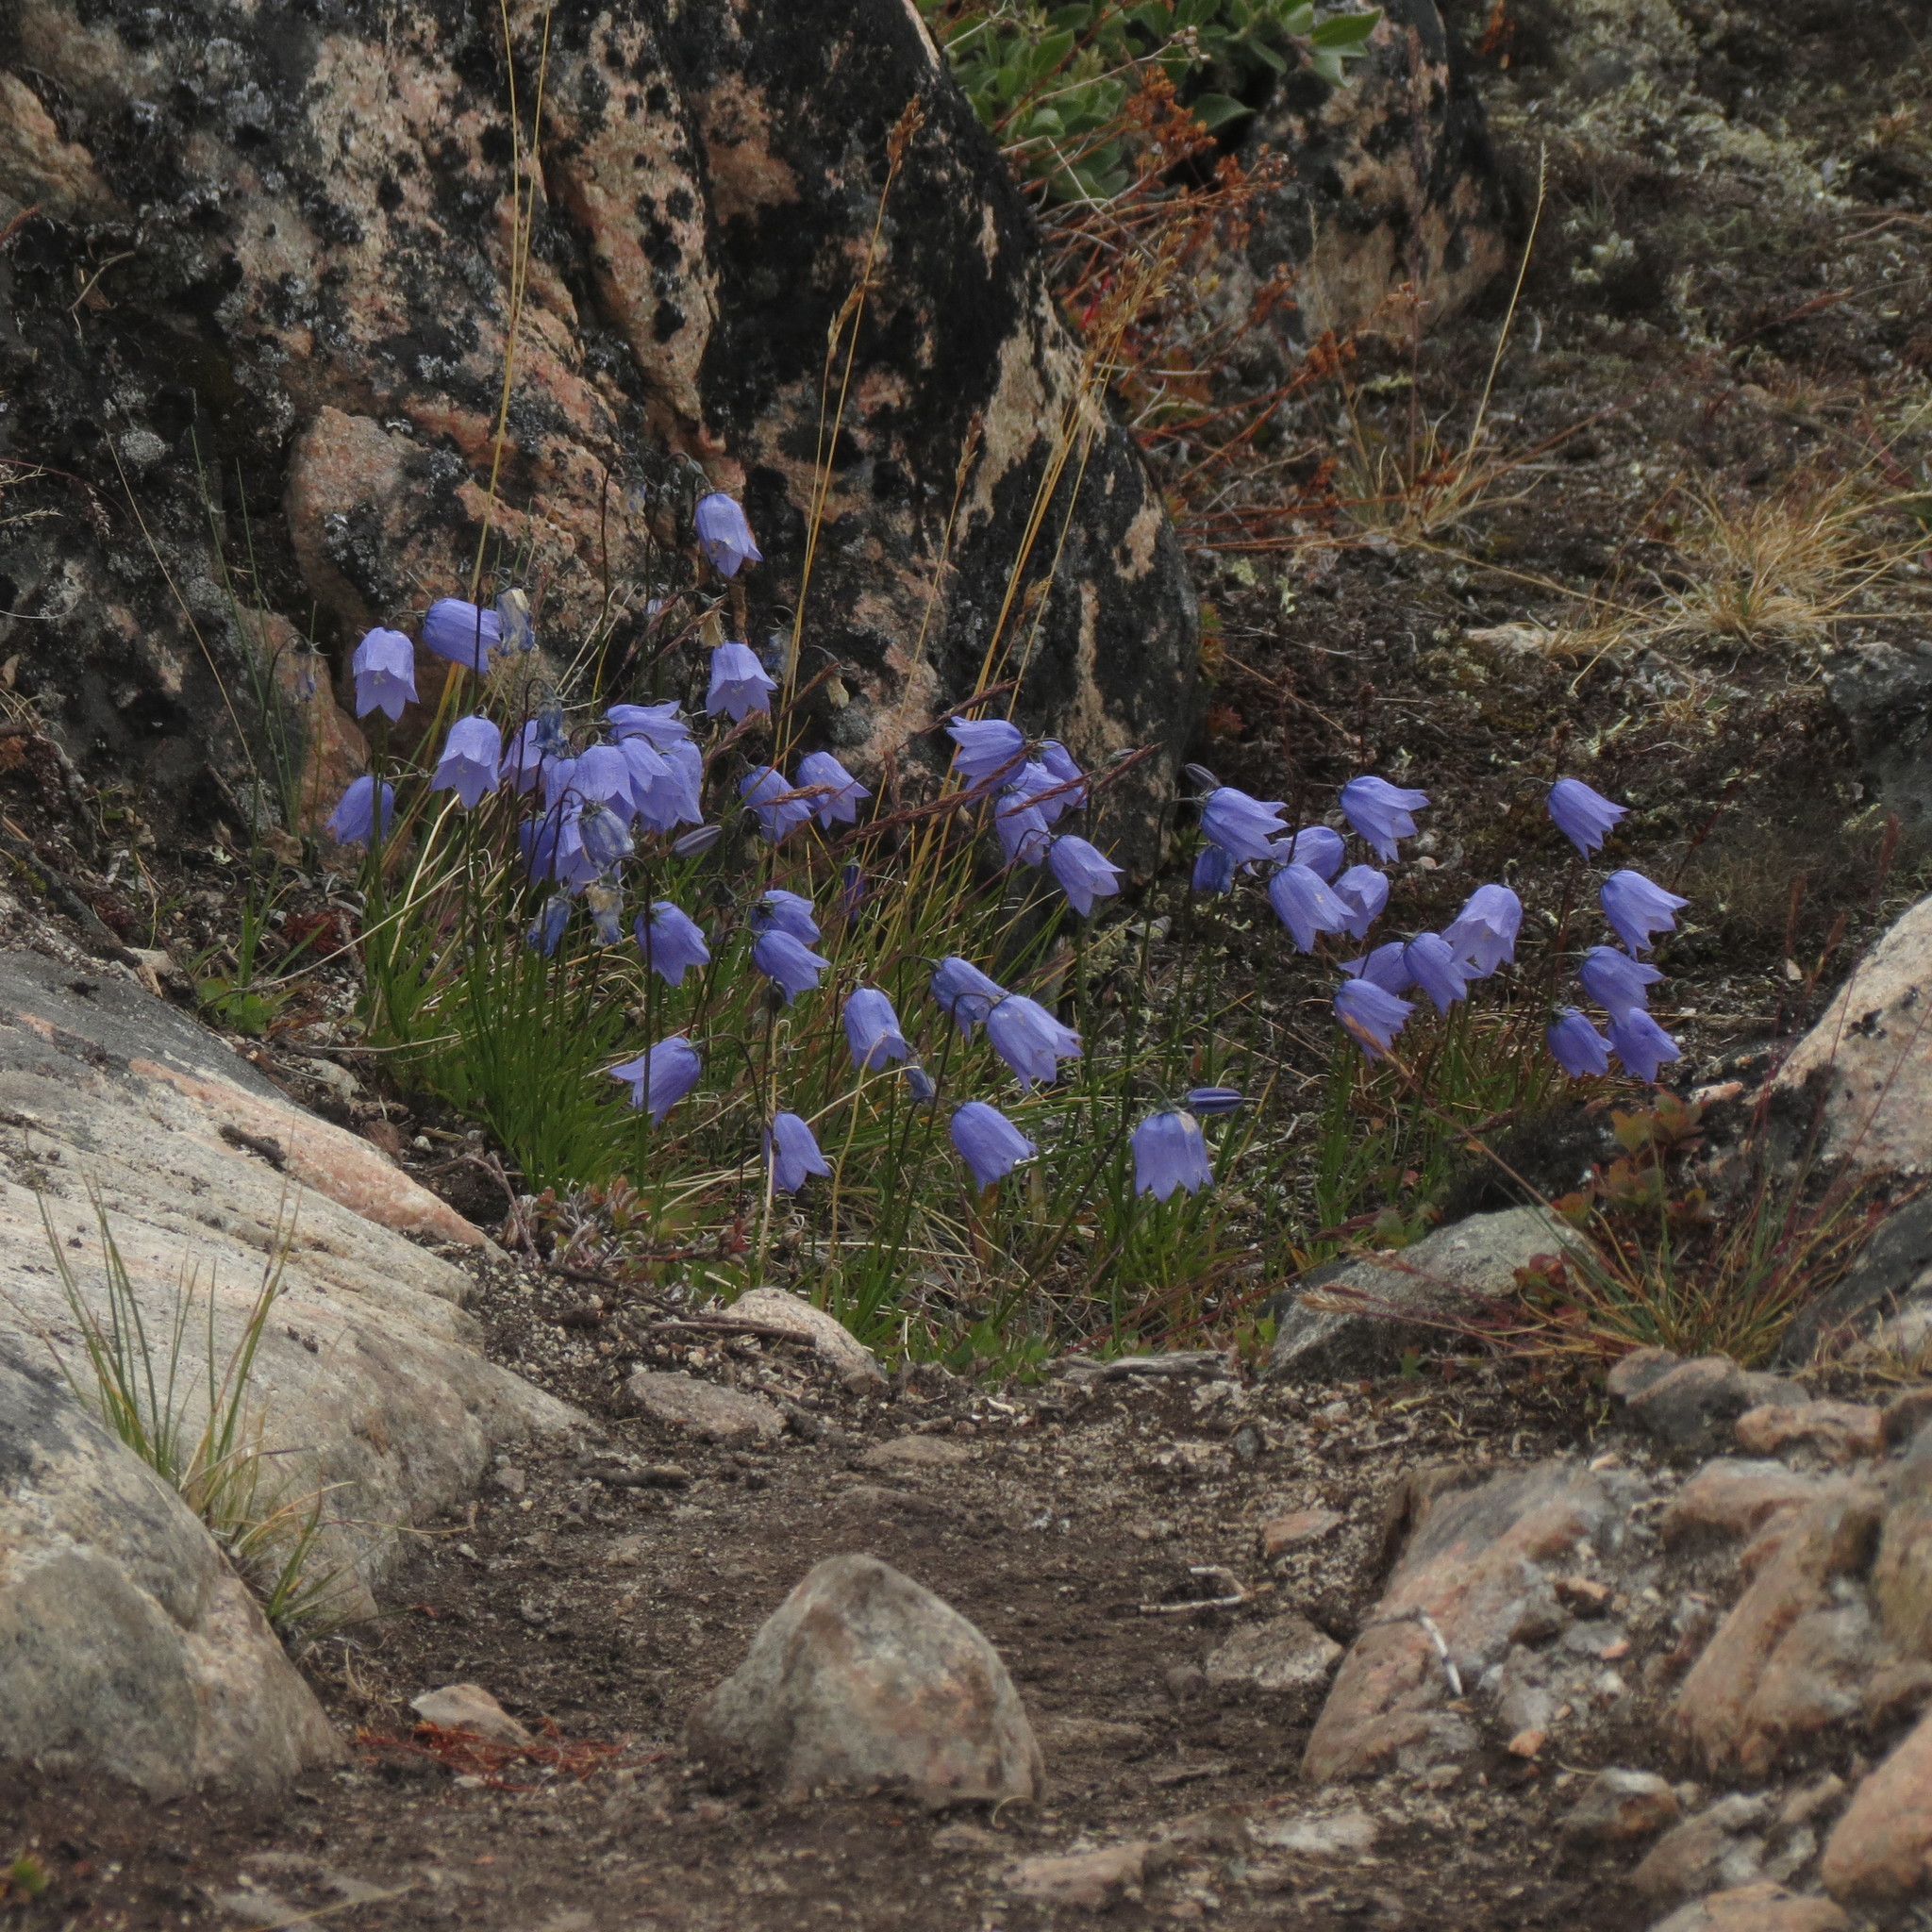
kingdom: Plantae
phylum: Tracheophyta
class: Magnoliopsida
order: Asterales
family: Campanulaceae
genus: Campanula
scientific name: Campanula giesekiana
